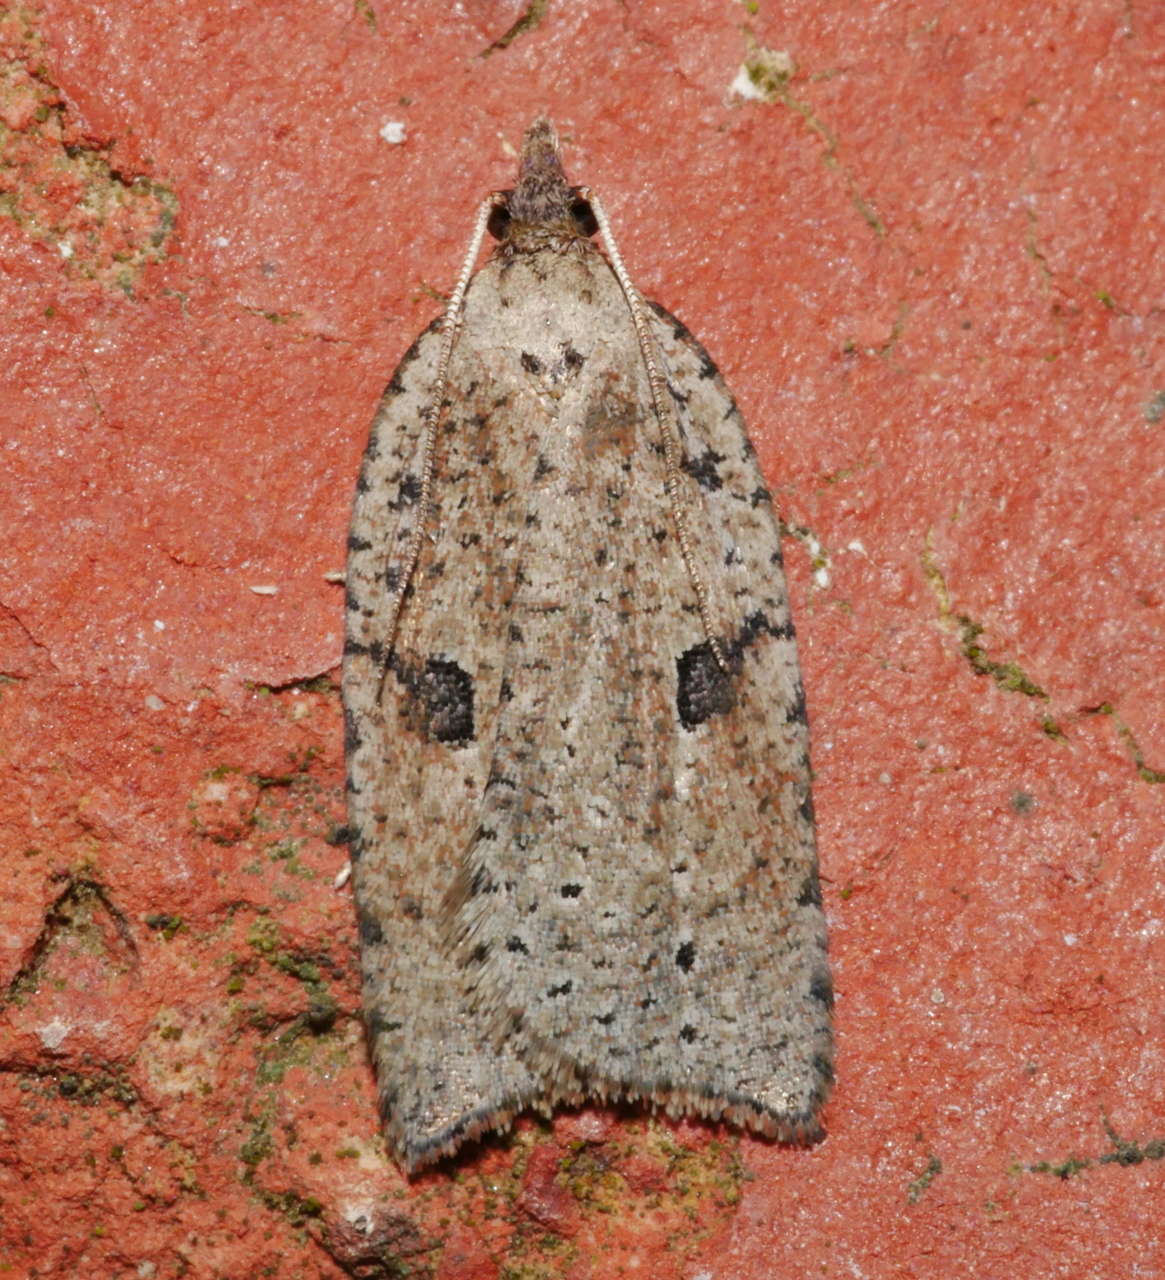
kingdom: Animalia
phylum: Arthropoda
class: Insecta
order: Lepidoptera
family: Tortricidae
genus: Meritastis
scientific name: Meritastis polygraphana
